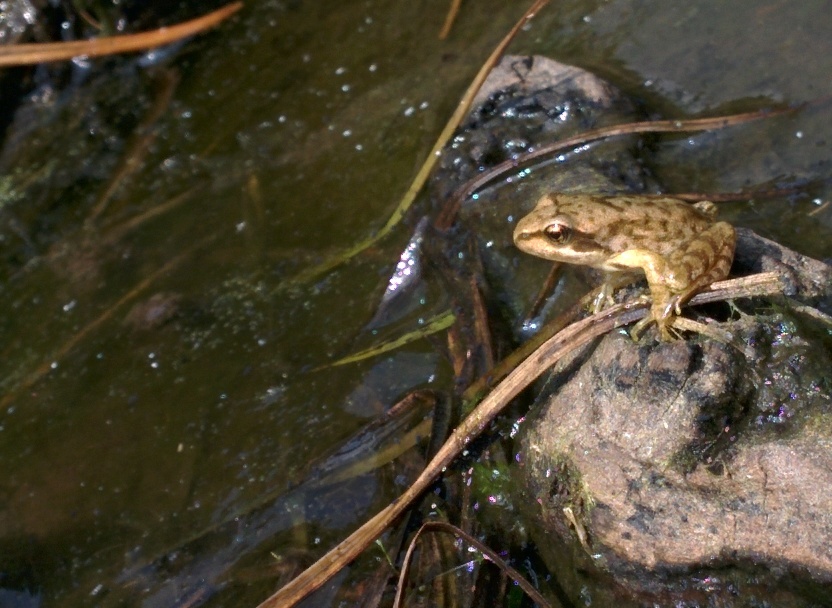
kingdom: Animalia
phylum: Chordata
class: Amphibia
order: Anura
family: Ranidae
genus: Rana
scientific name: Rana temporaria
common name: Common frog
